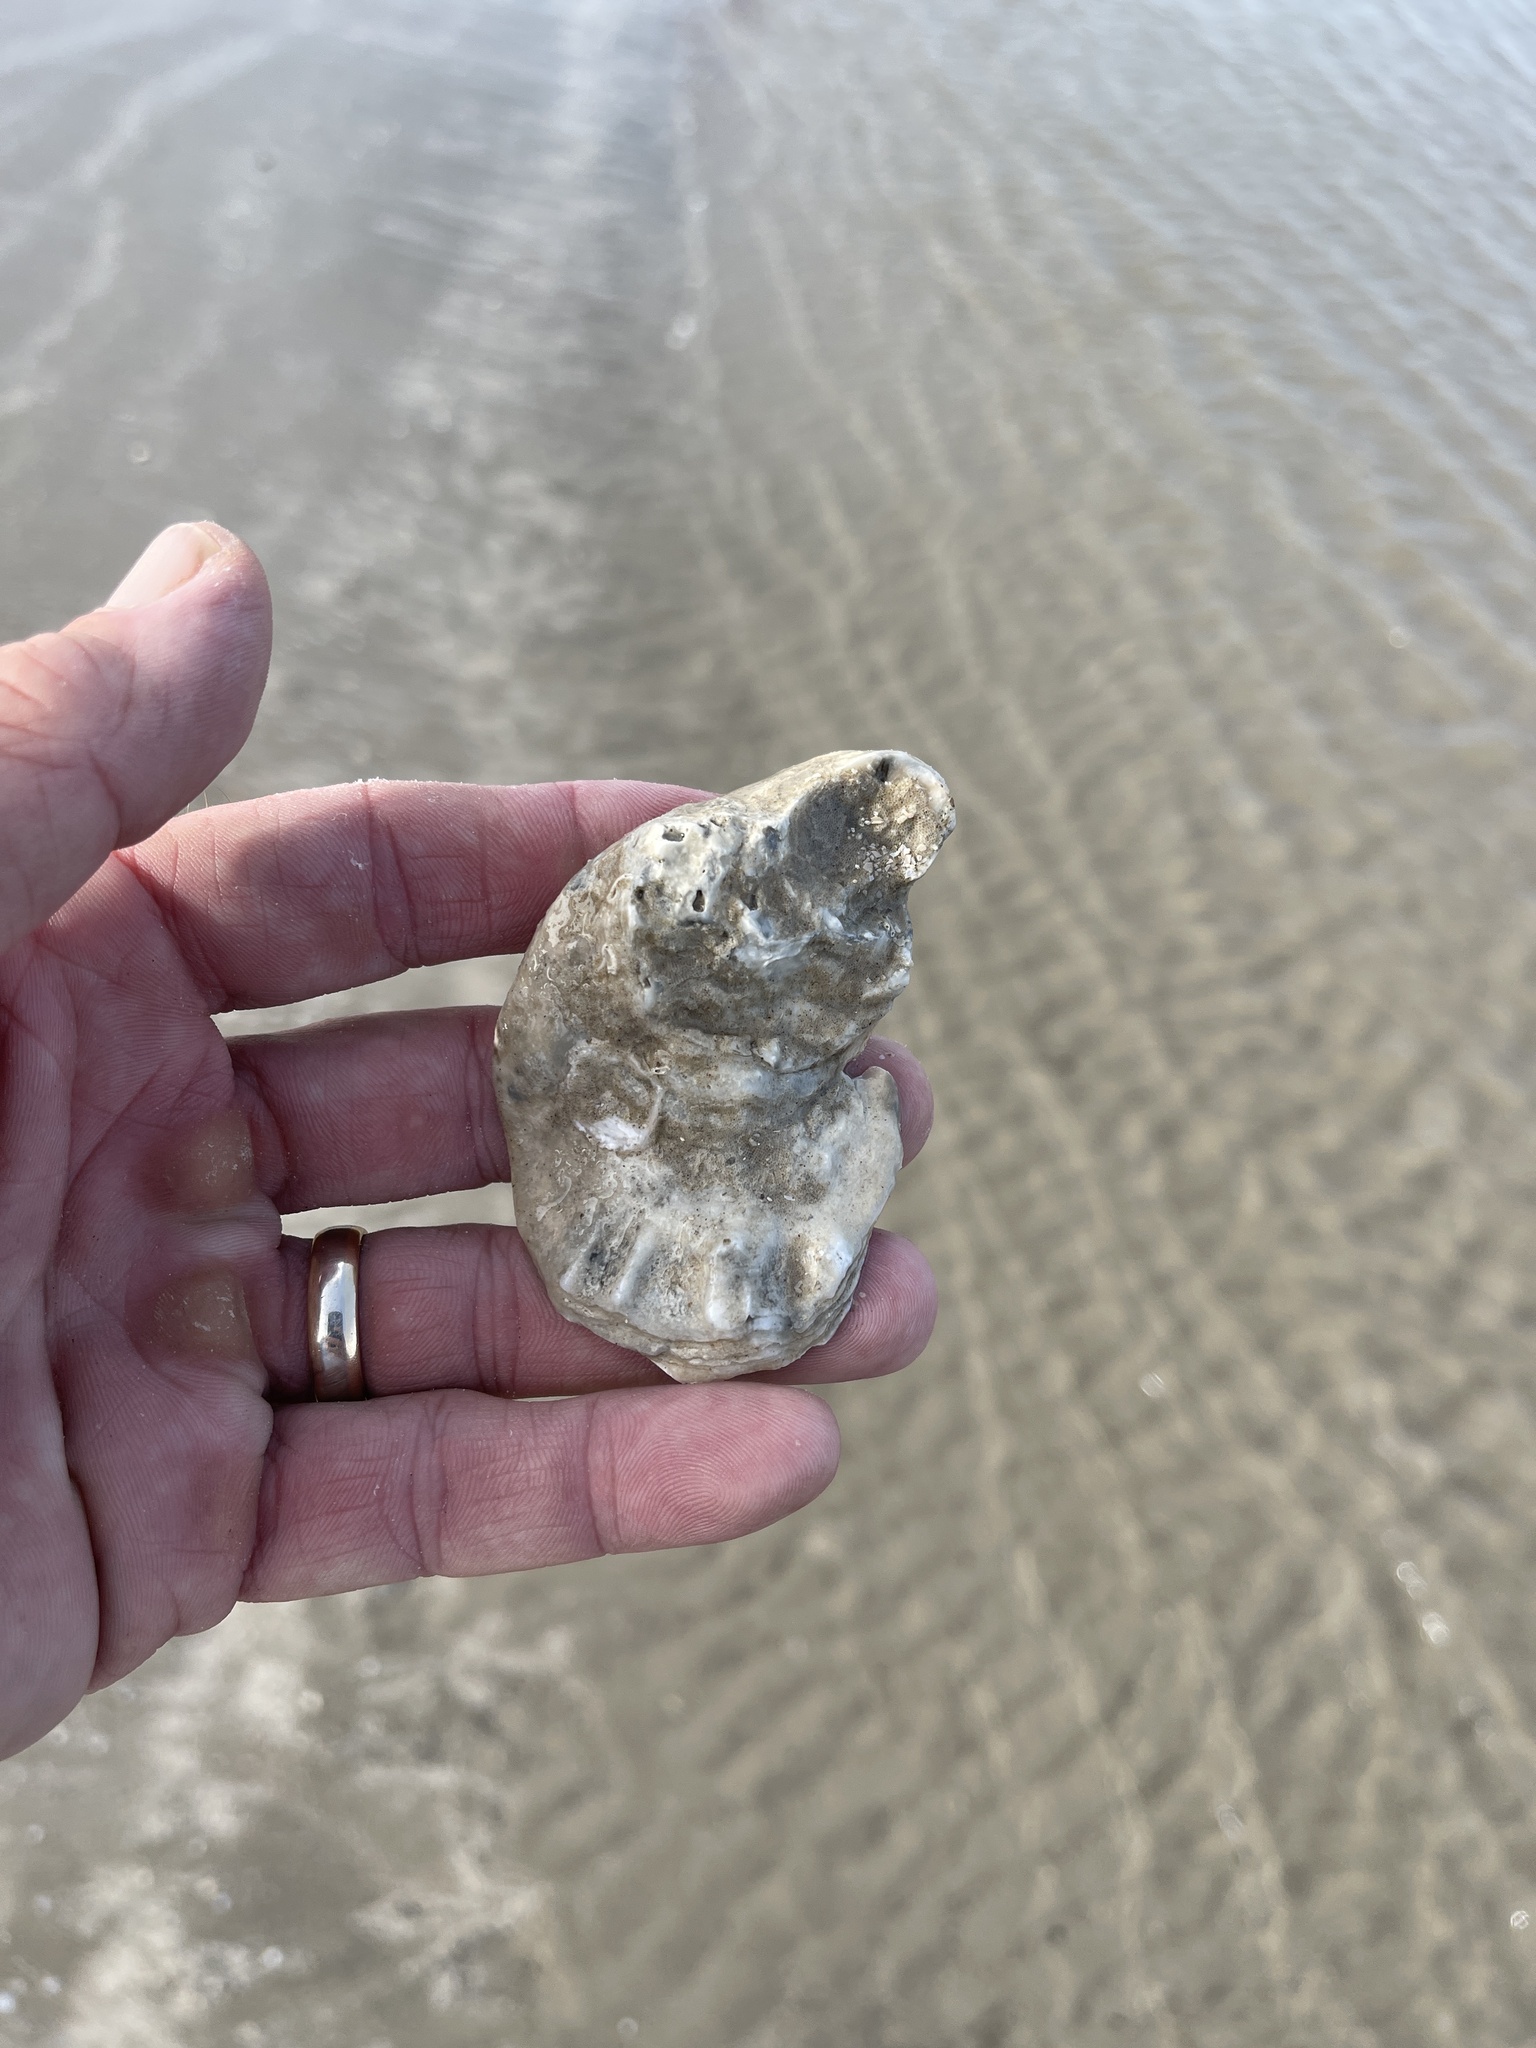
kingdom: Animalia
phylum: Mollusca
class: Bivalvia
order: Ostreida
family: Ostreidae
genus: Crassostrea
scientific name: Crassostrea virginica
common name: American oyster
